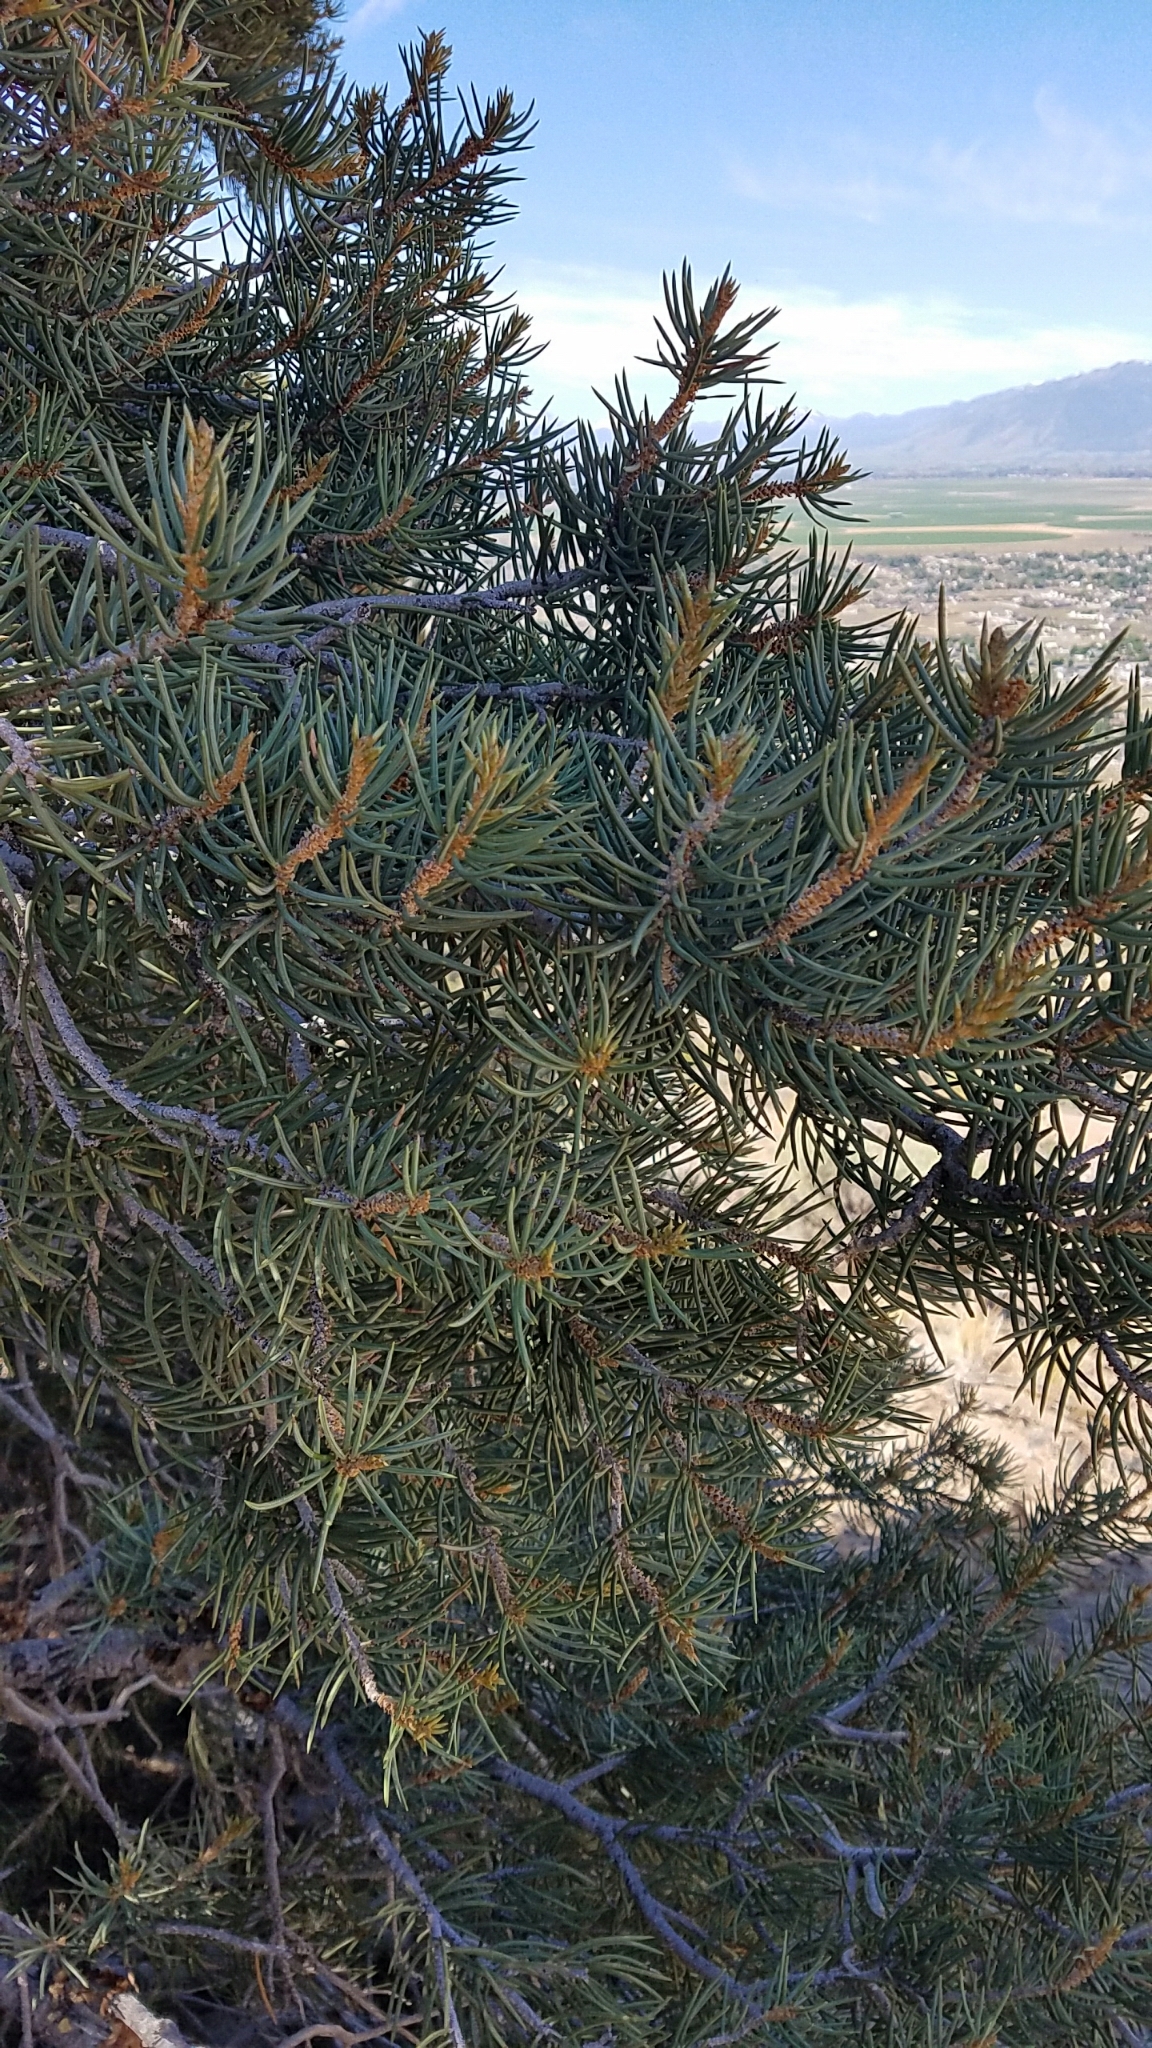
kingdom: Plantae
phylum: Tracheophyta
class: Pinopsida
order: Pinales
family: Pinaceae
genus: Pinus
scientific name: Pinus monophylla
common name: One-leaved nut pine
